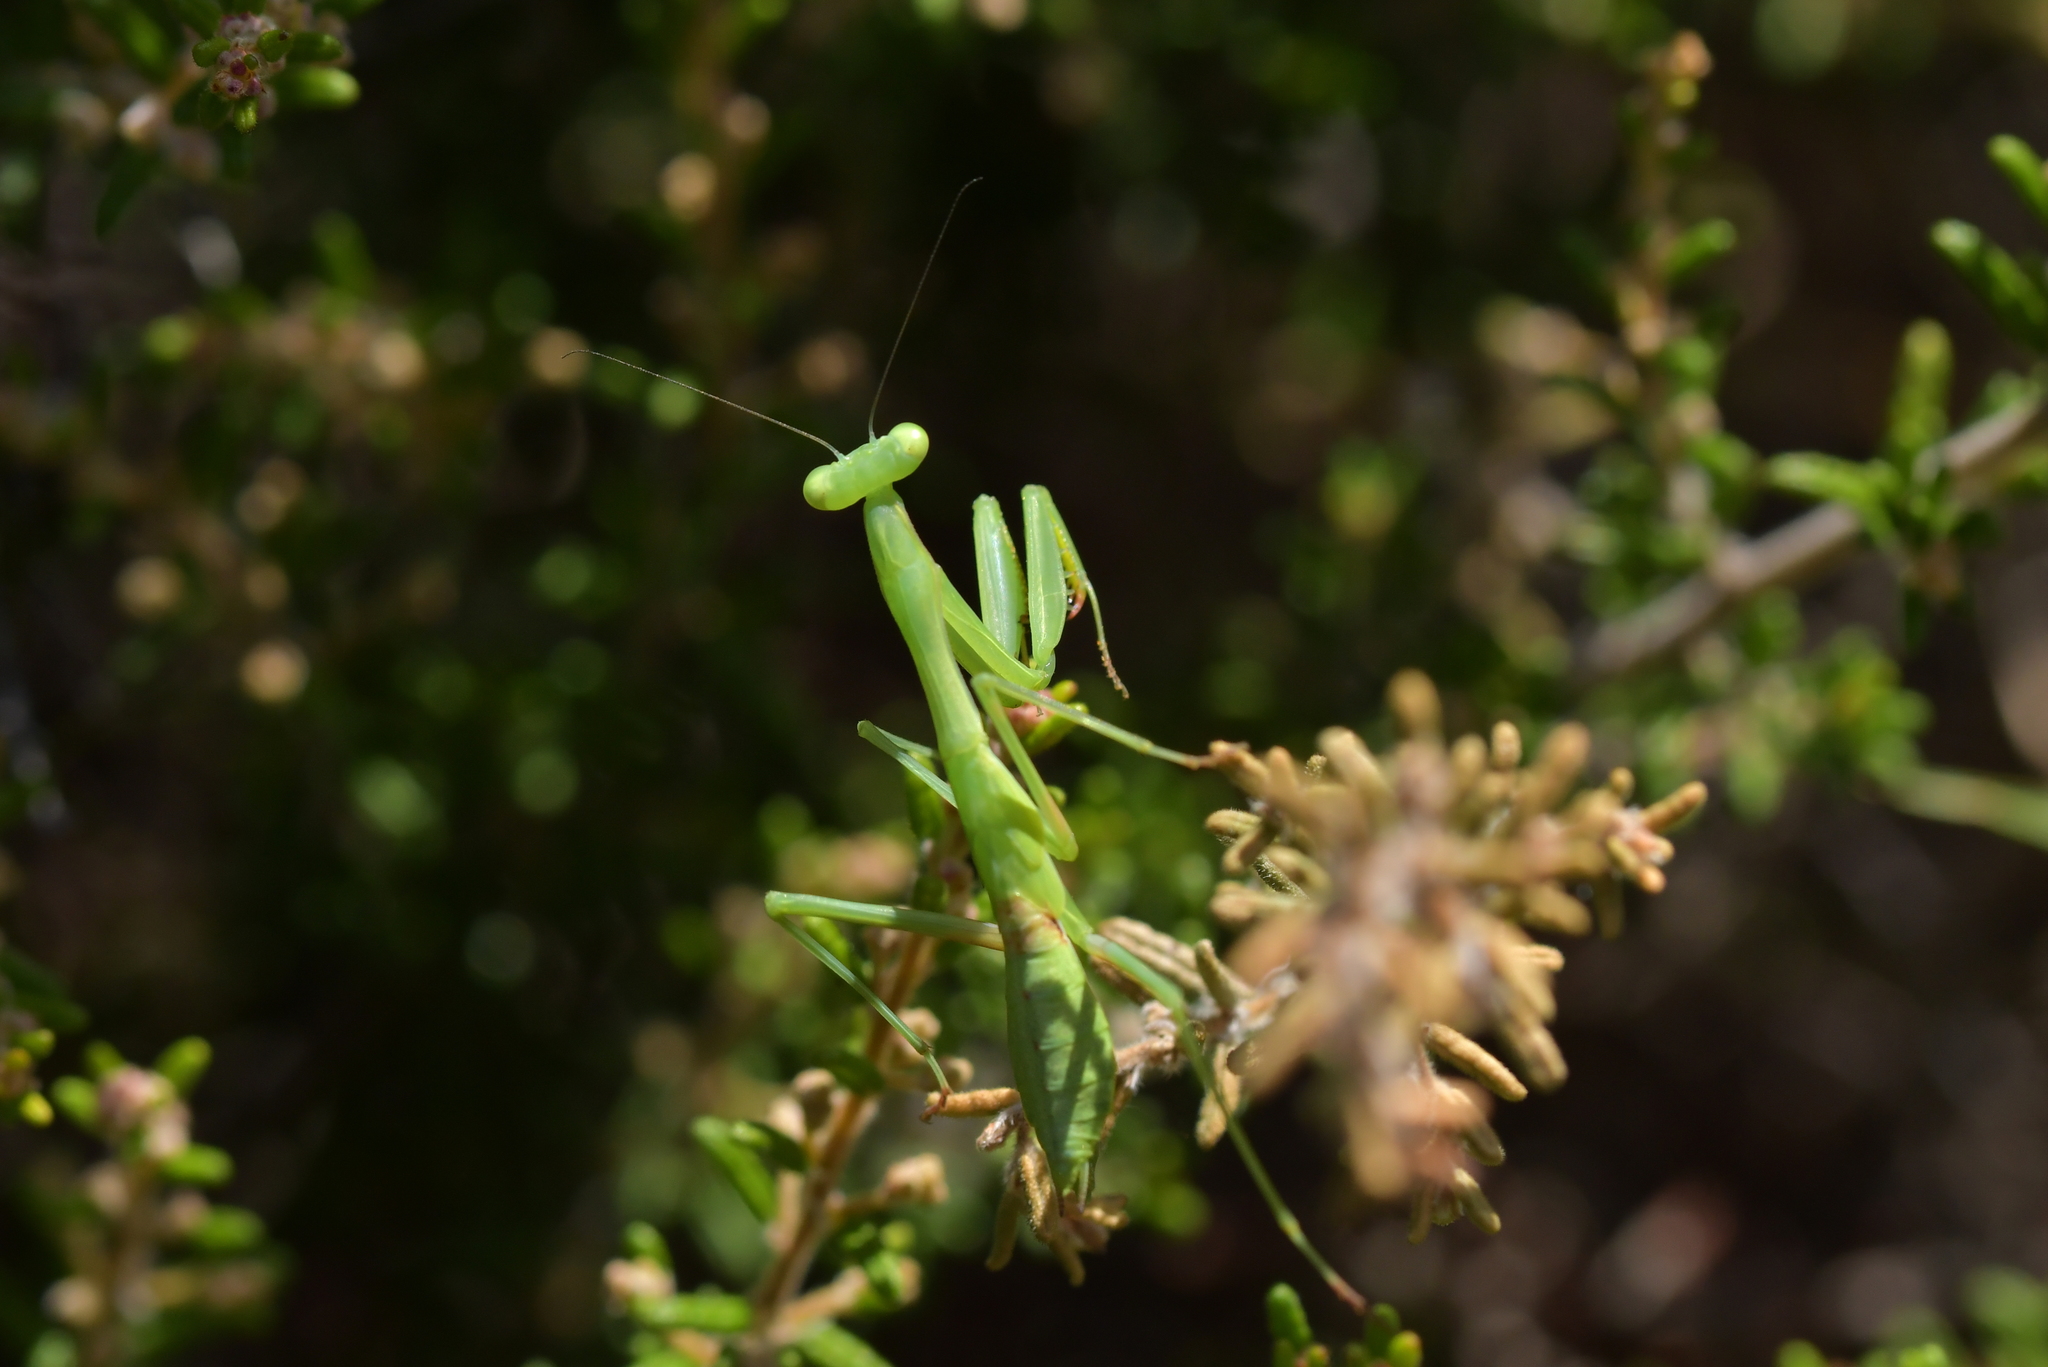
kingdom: Animalia
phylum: Arthropoda
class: Insecta
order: Mantodea
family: Miomantidae
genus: Miomantis
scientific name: Miomantis caffra
